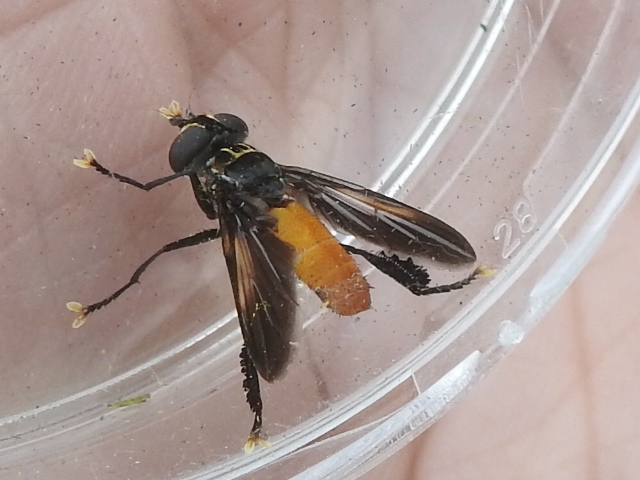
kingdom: Animalia
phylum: Arthropoda
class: Insecta
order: Diptera
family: Tachinidae
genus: Trichopoda
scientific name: Trichopoda pennipes
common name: Tachinid fly
